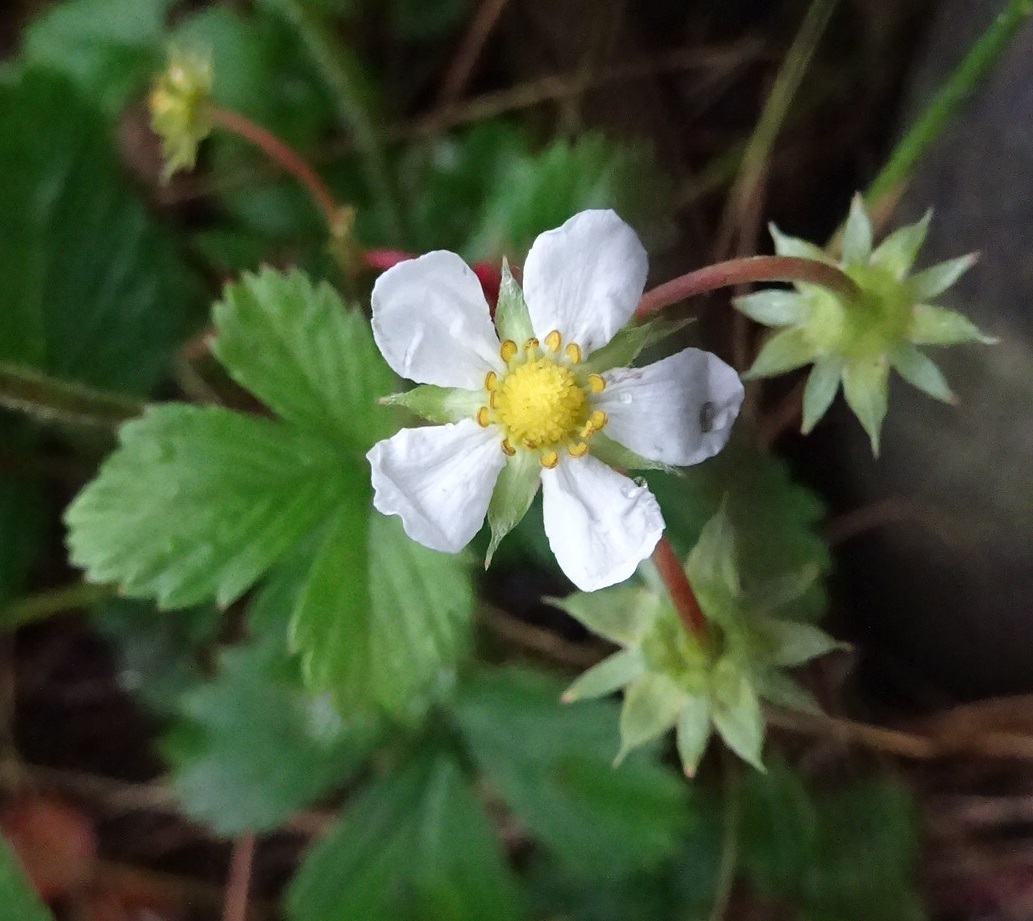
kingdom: Plantae
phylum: Tracheophyta
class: Magnoliopsida
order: Rosales
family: Rosaceae
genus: Fragaria
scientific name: Fragaria vesca
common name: Wild strawberry
